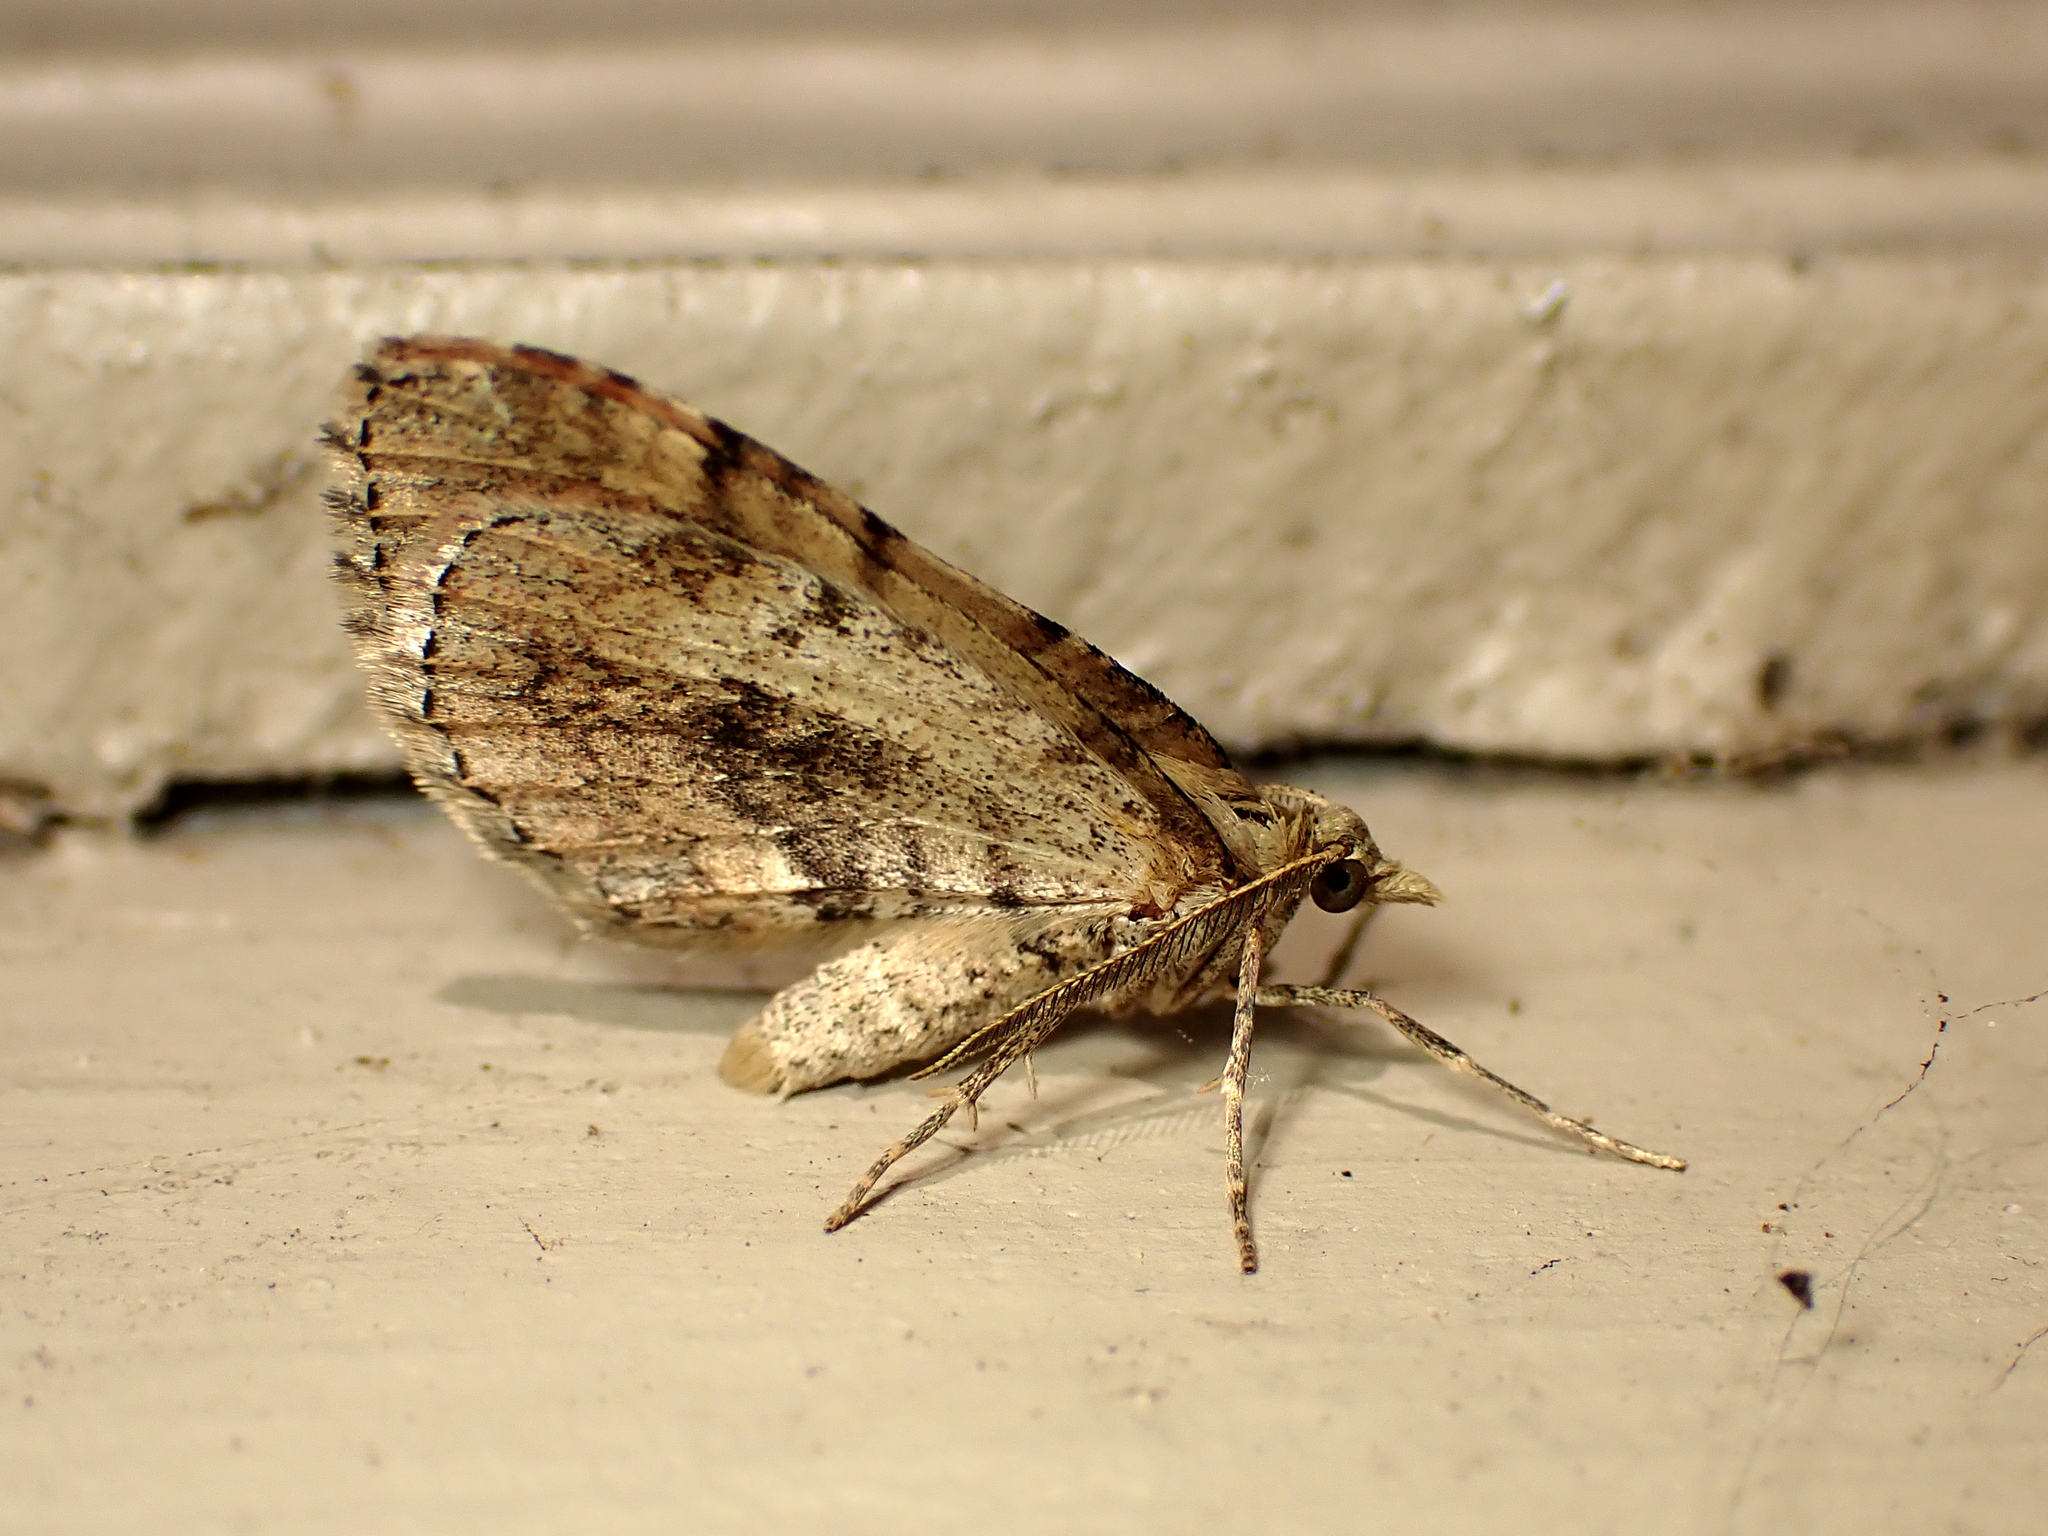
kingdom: Animalia
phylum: Arthropoda
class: Insecta
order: Lepidoptera
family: Geometridae
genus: Asaphodes
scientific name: Asaphodes aegrota
